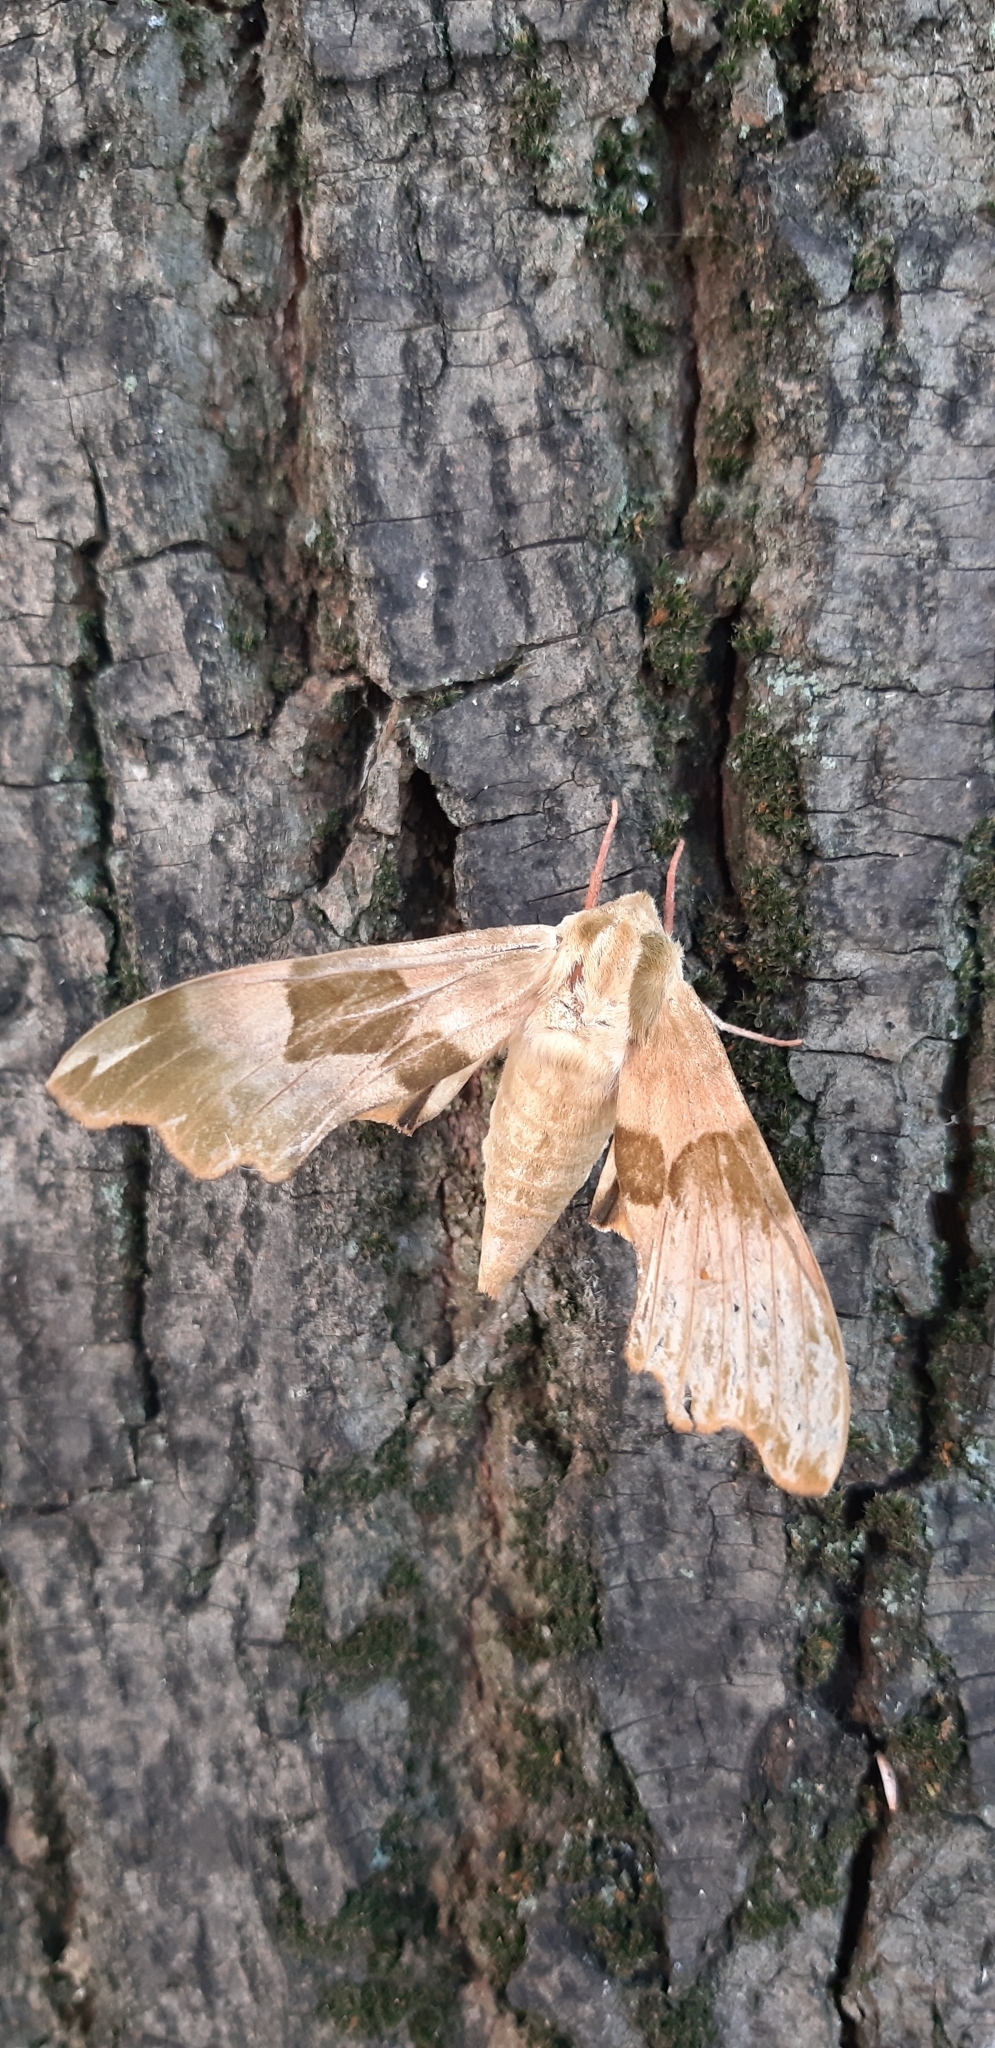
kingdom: Animalia
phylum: Arthropoda
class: Insecta
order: Lepidoptera
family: Sphingidae
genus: Mimas
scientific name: Mimas tiliae
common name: Lime hawk-moth
